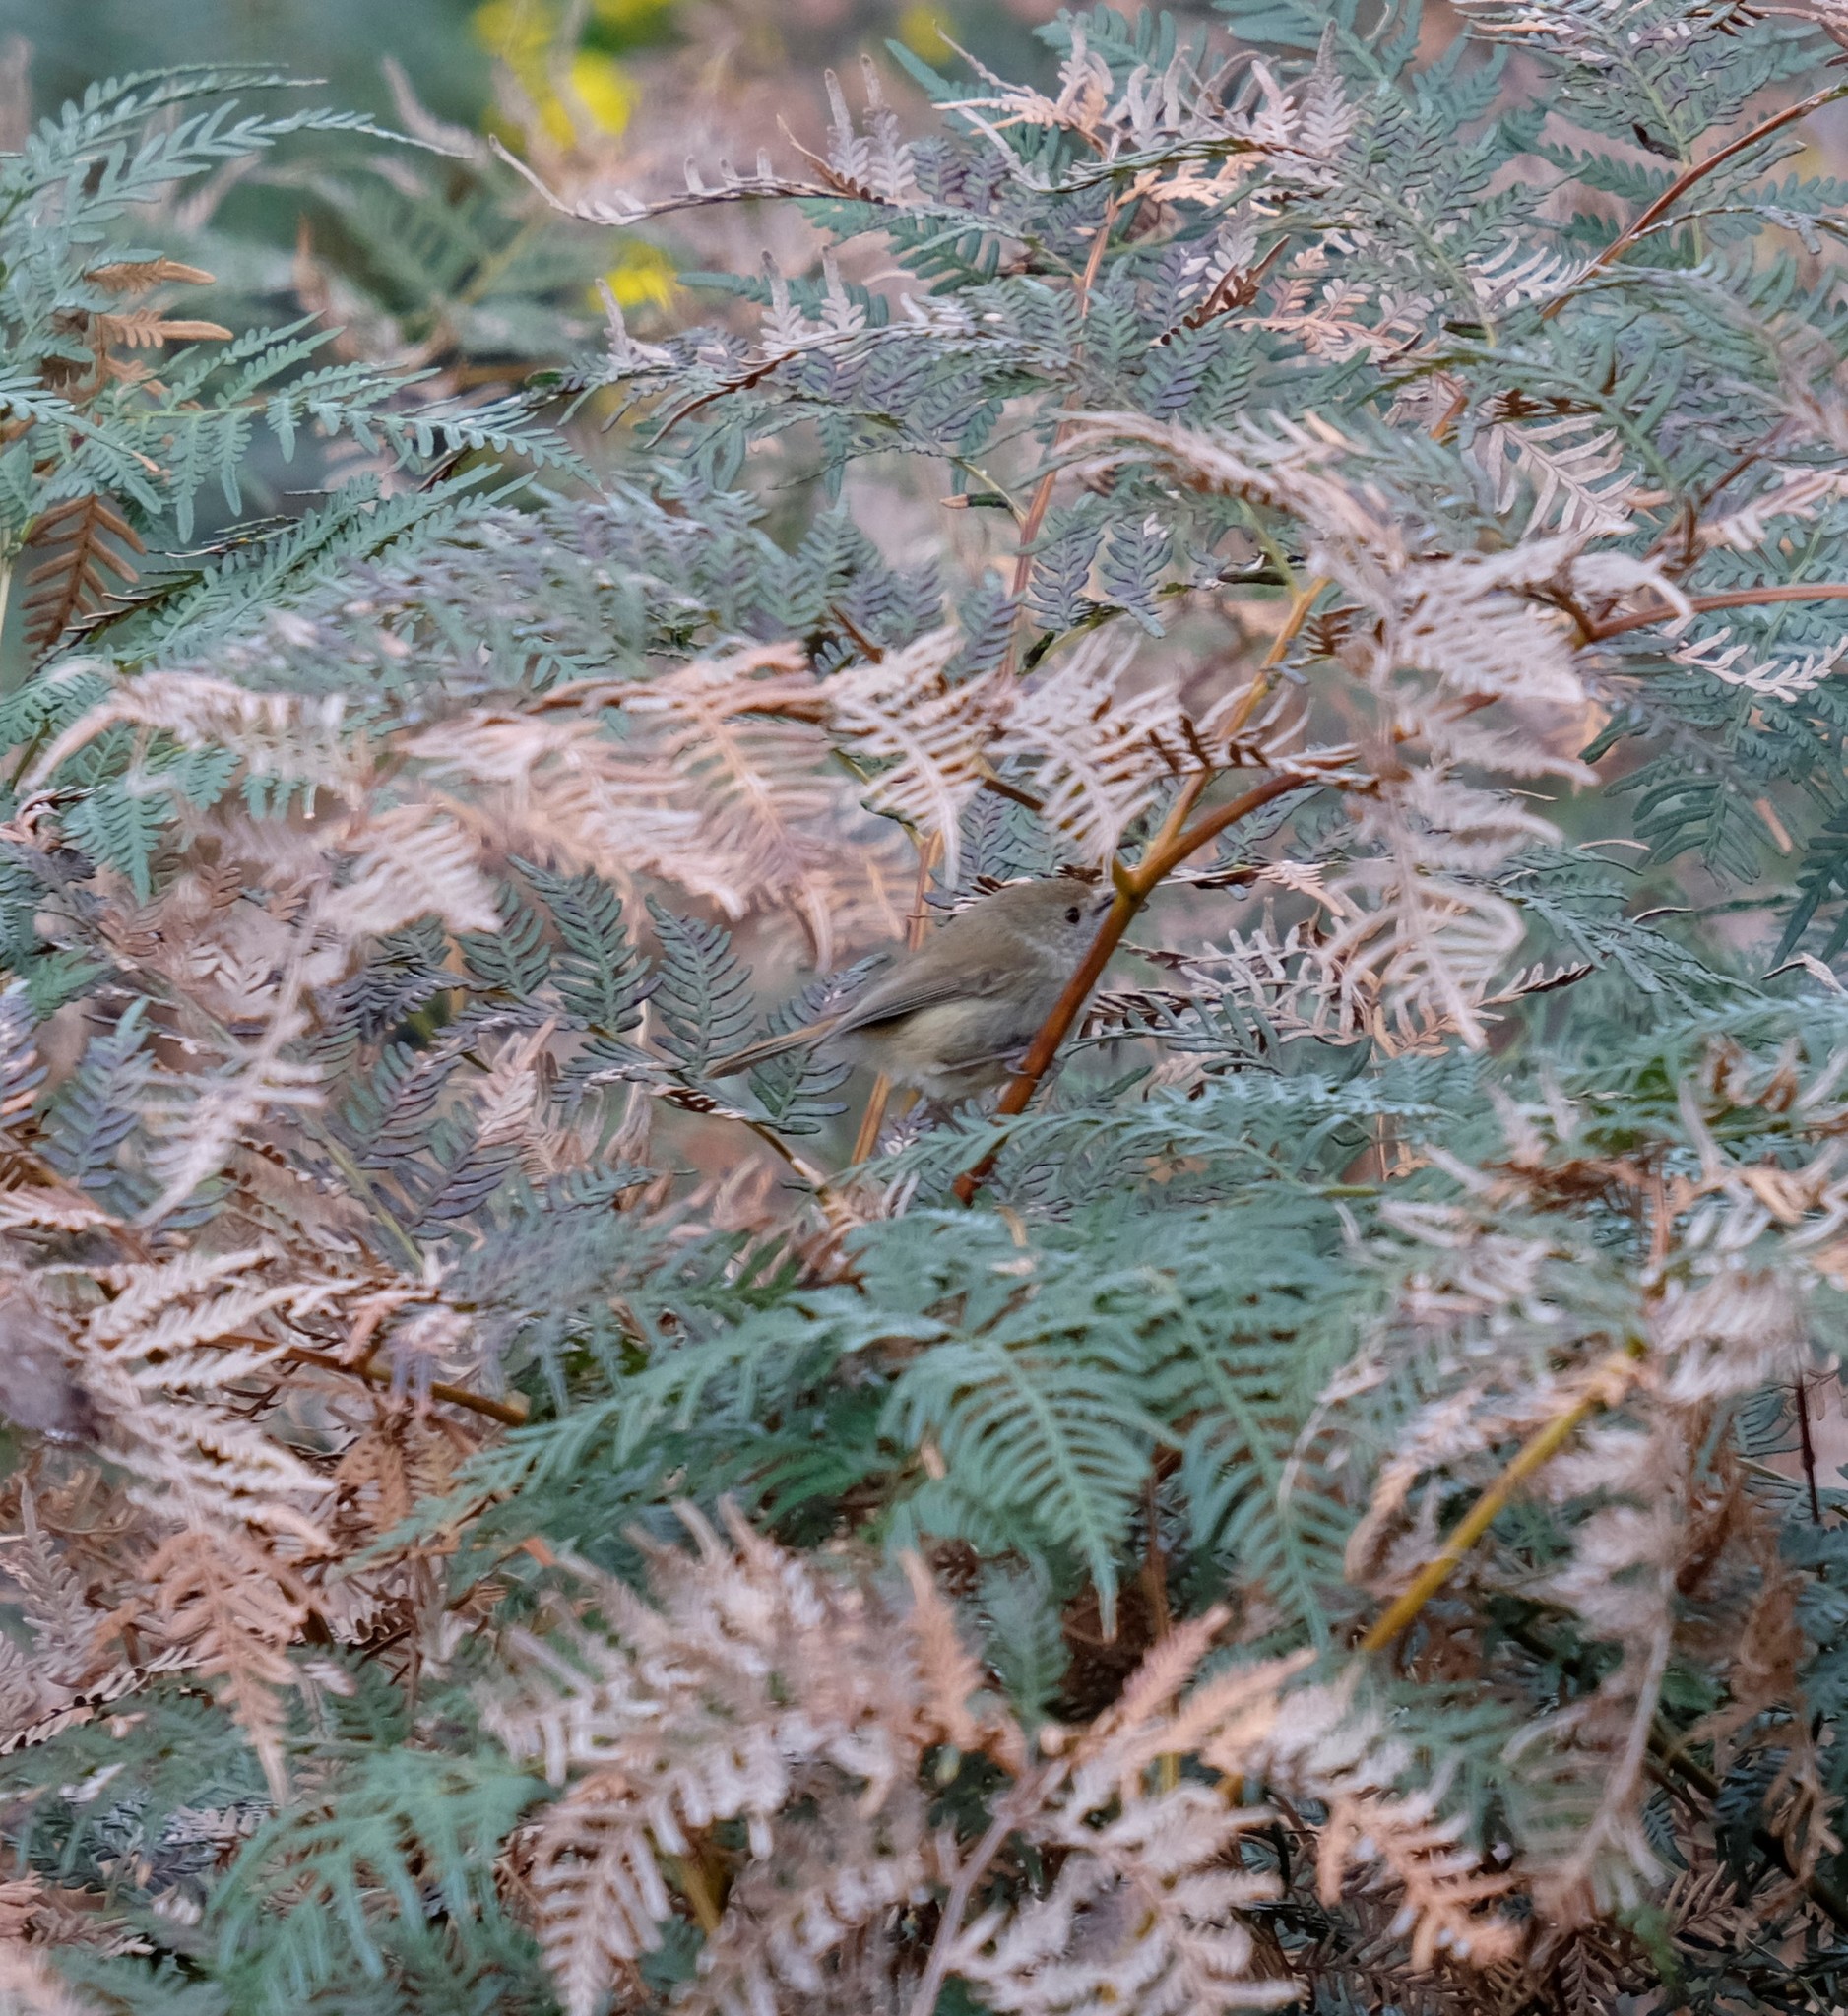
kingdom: Animalia
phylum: Chordata
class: Aves
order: Passeriformes
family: Acanthizidae
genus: Acanthiza
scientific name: Acanthiza pusilla
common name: Brown thornbill
